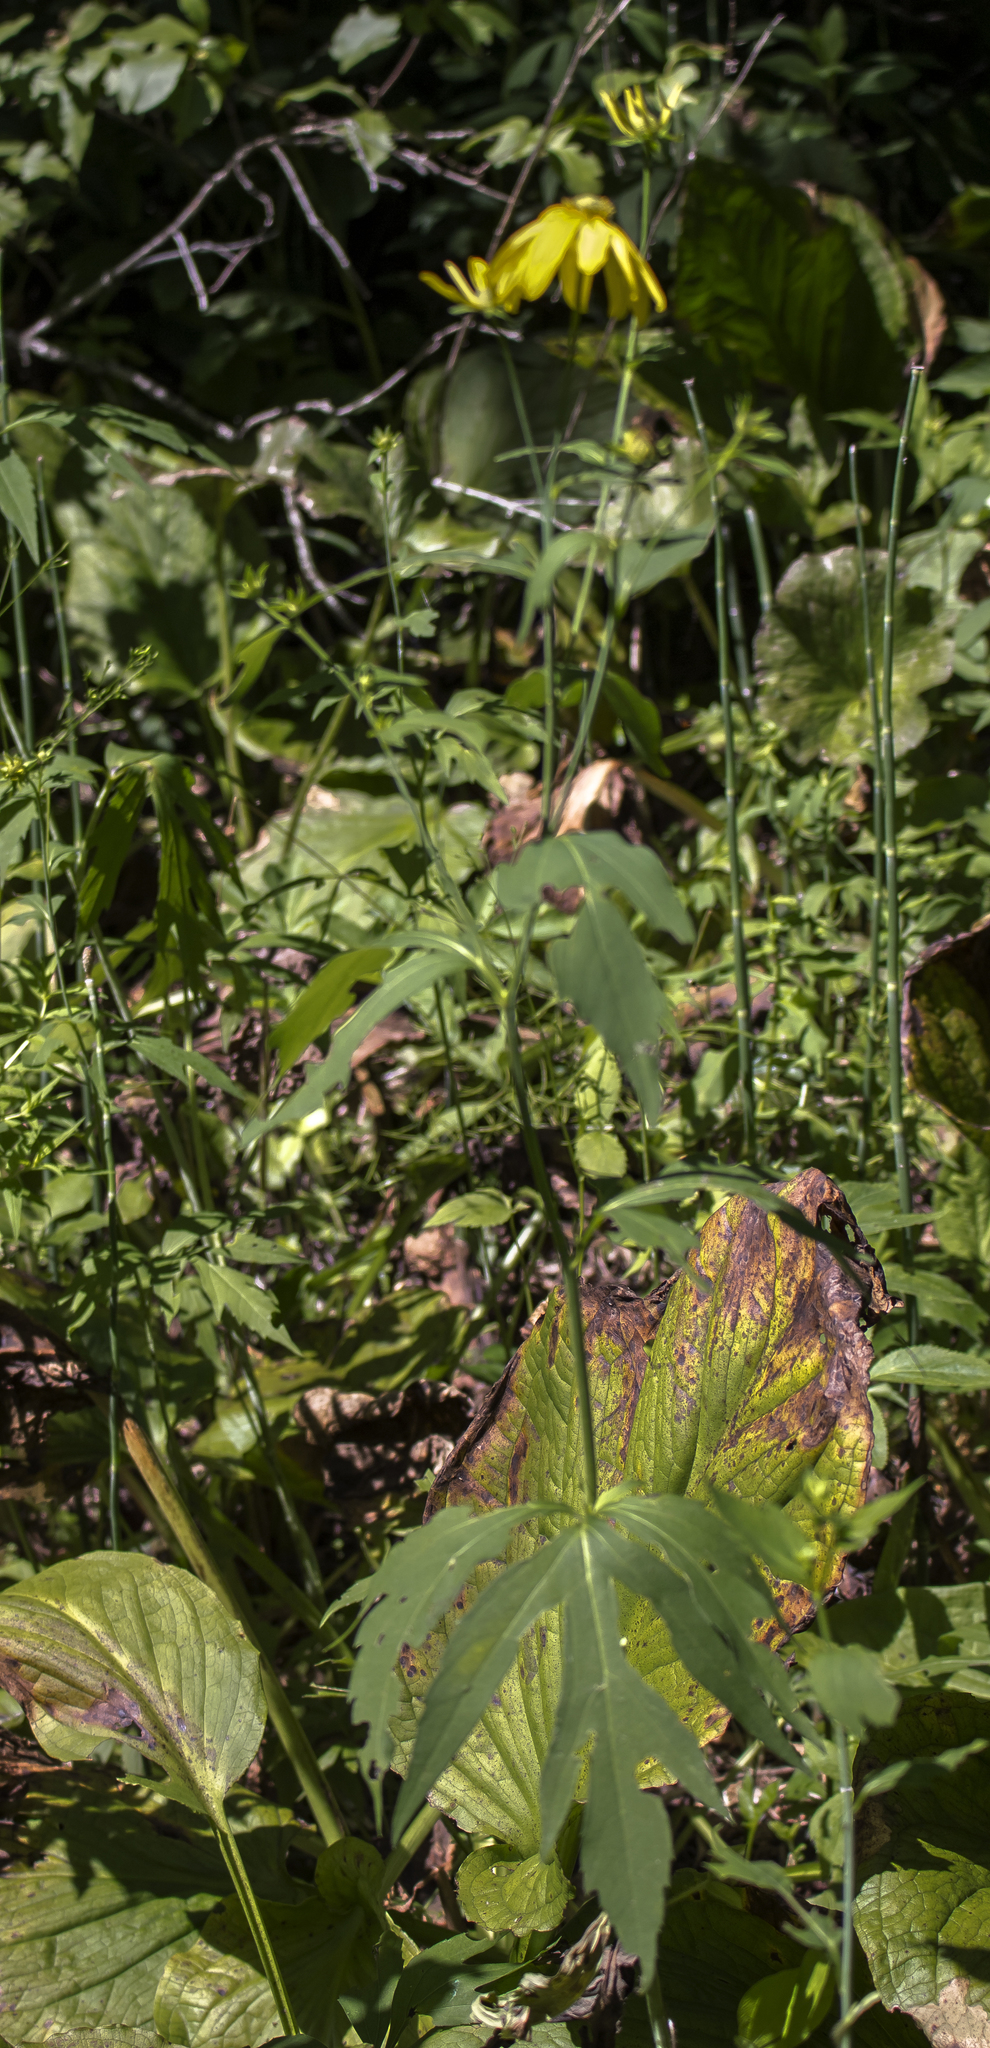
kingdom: Plantae
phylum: Tracheophyta
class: Magnoliopsida
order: Asterales
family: Asteraceae
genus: Rudbeckia
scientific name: Rudbeckia laciniata
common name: Coneflower
